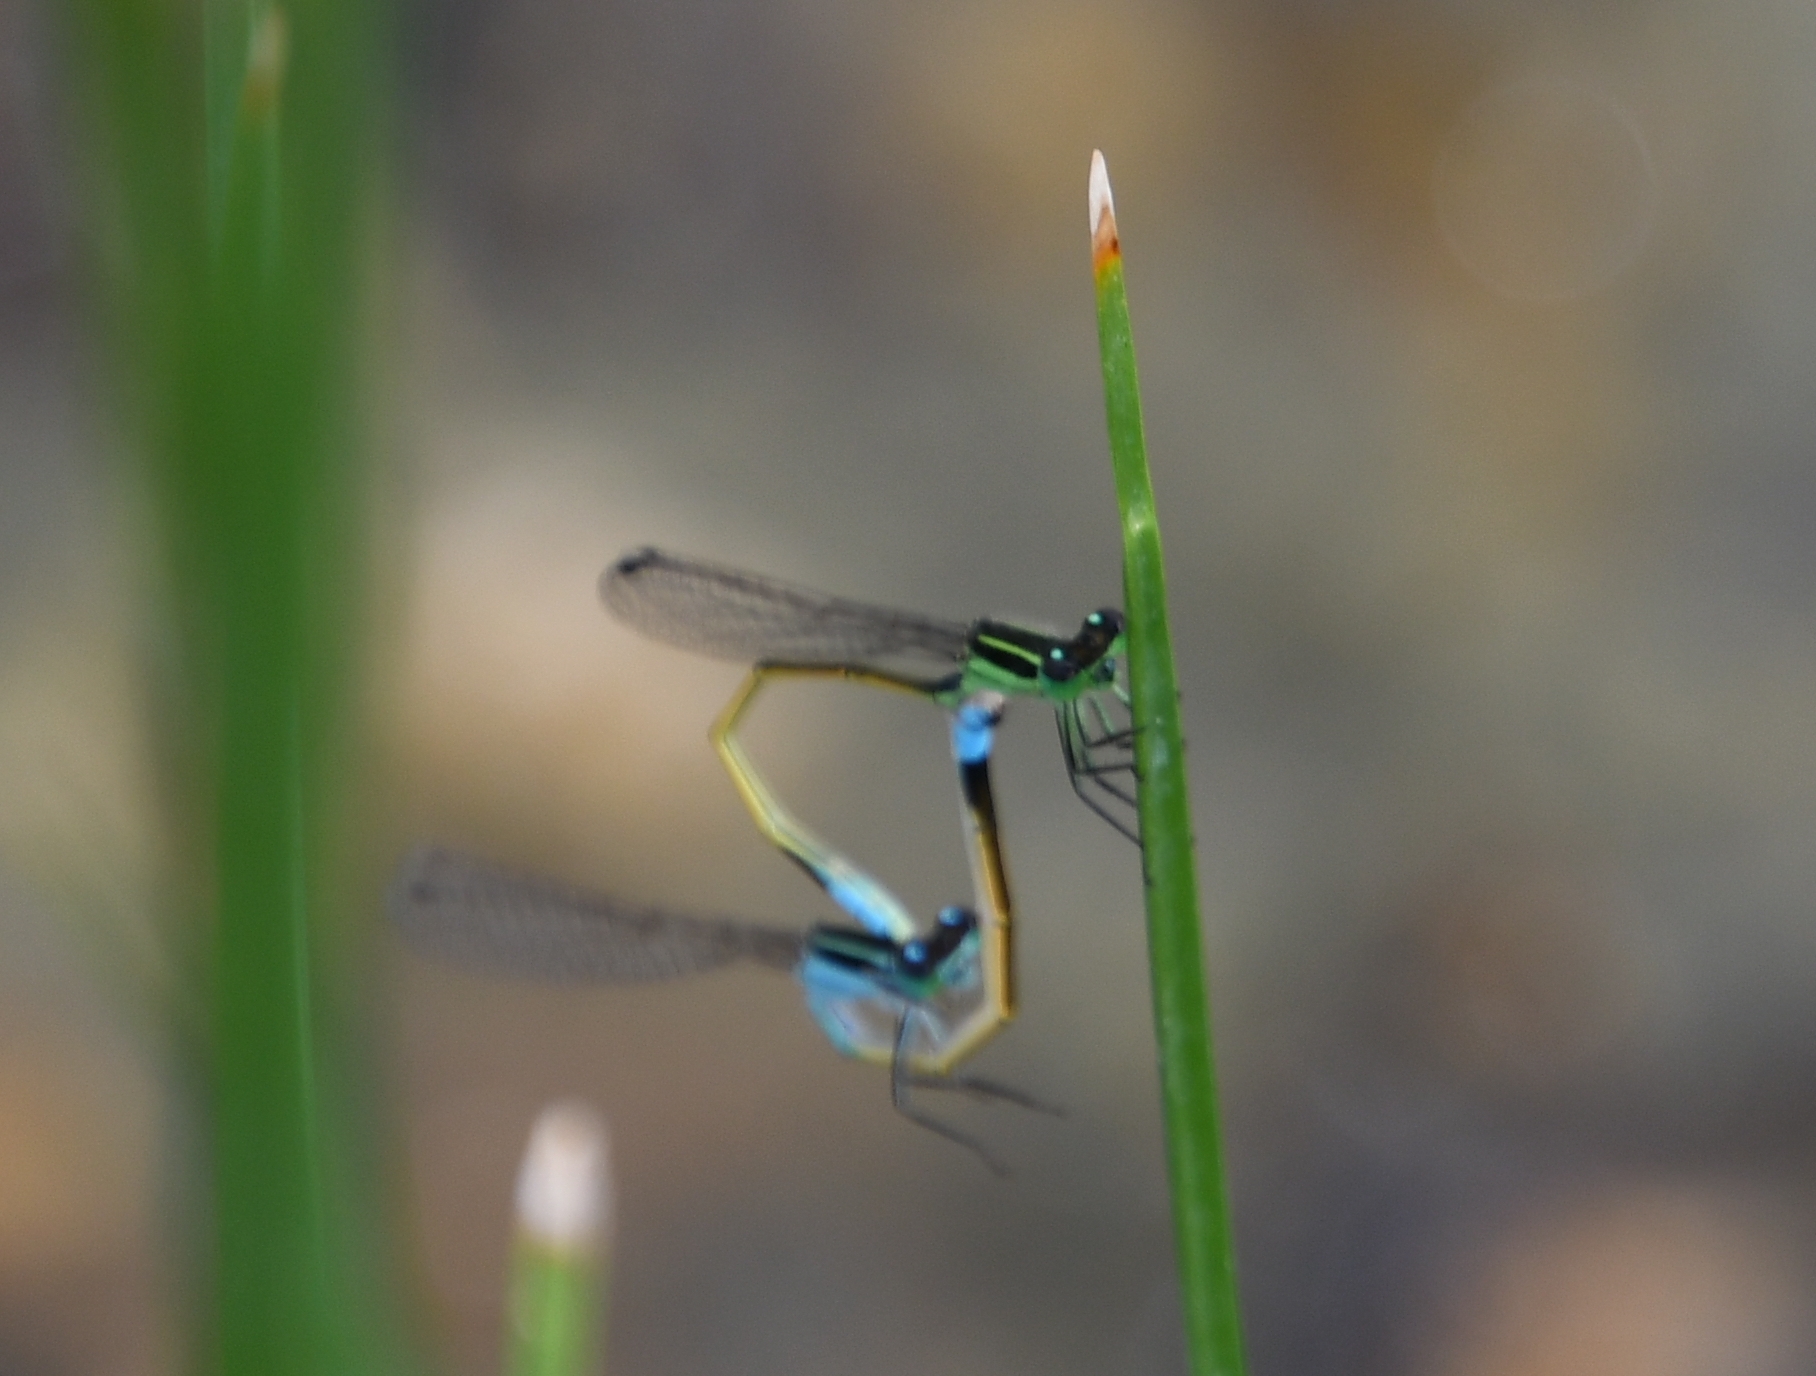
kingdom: Animalia
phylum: Arthropoda
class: Insecta
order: Odonata
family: Coenagrionidae
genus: Ischnura
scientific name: Ischnura ramburii
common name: Rambur's forktail
